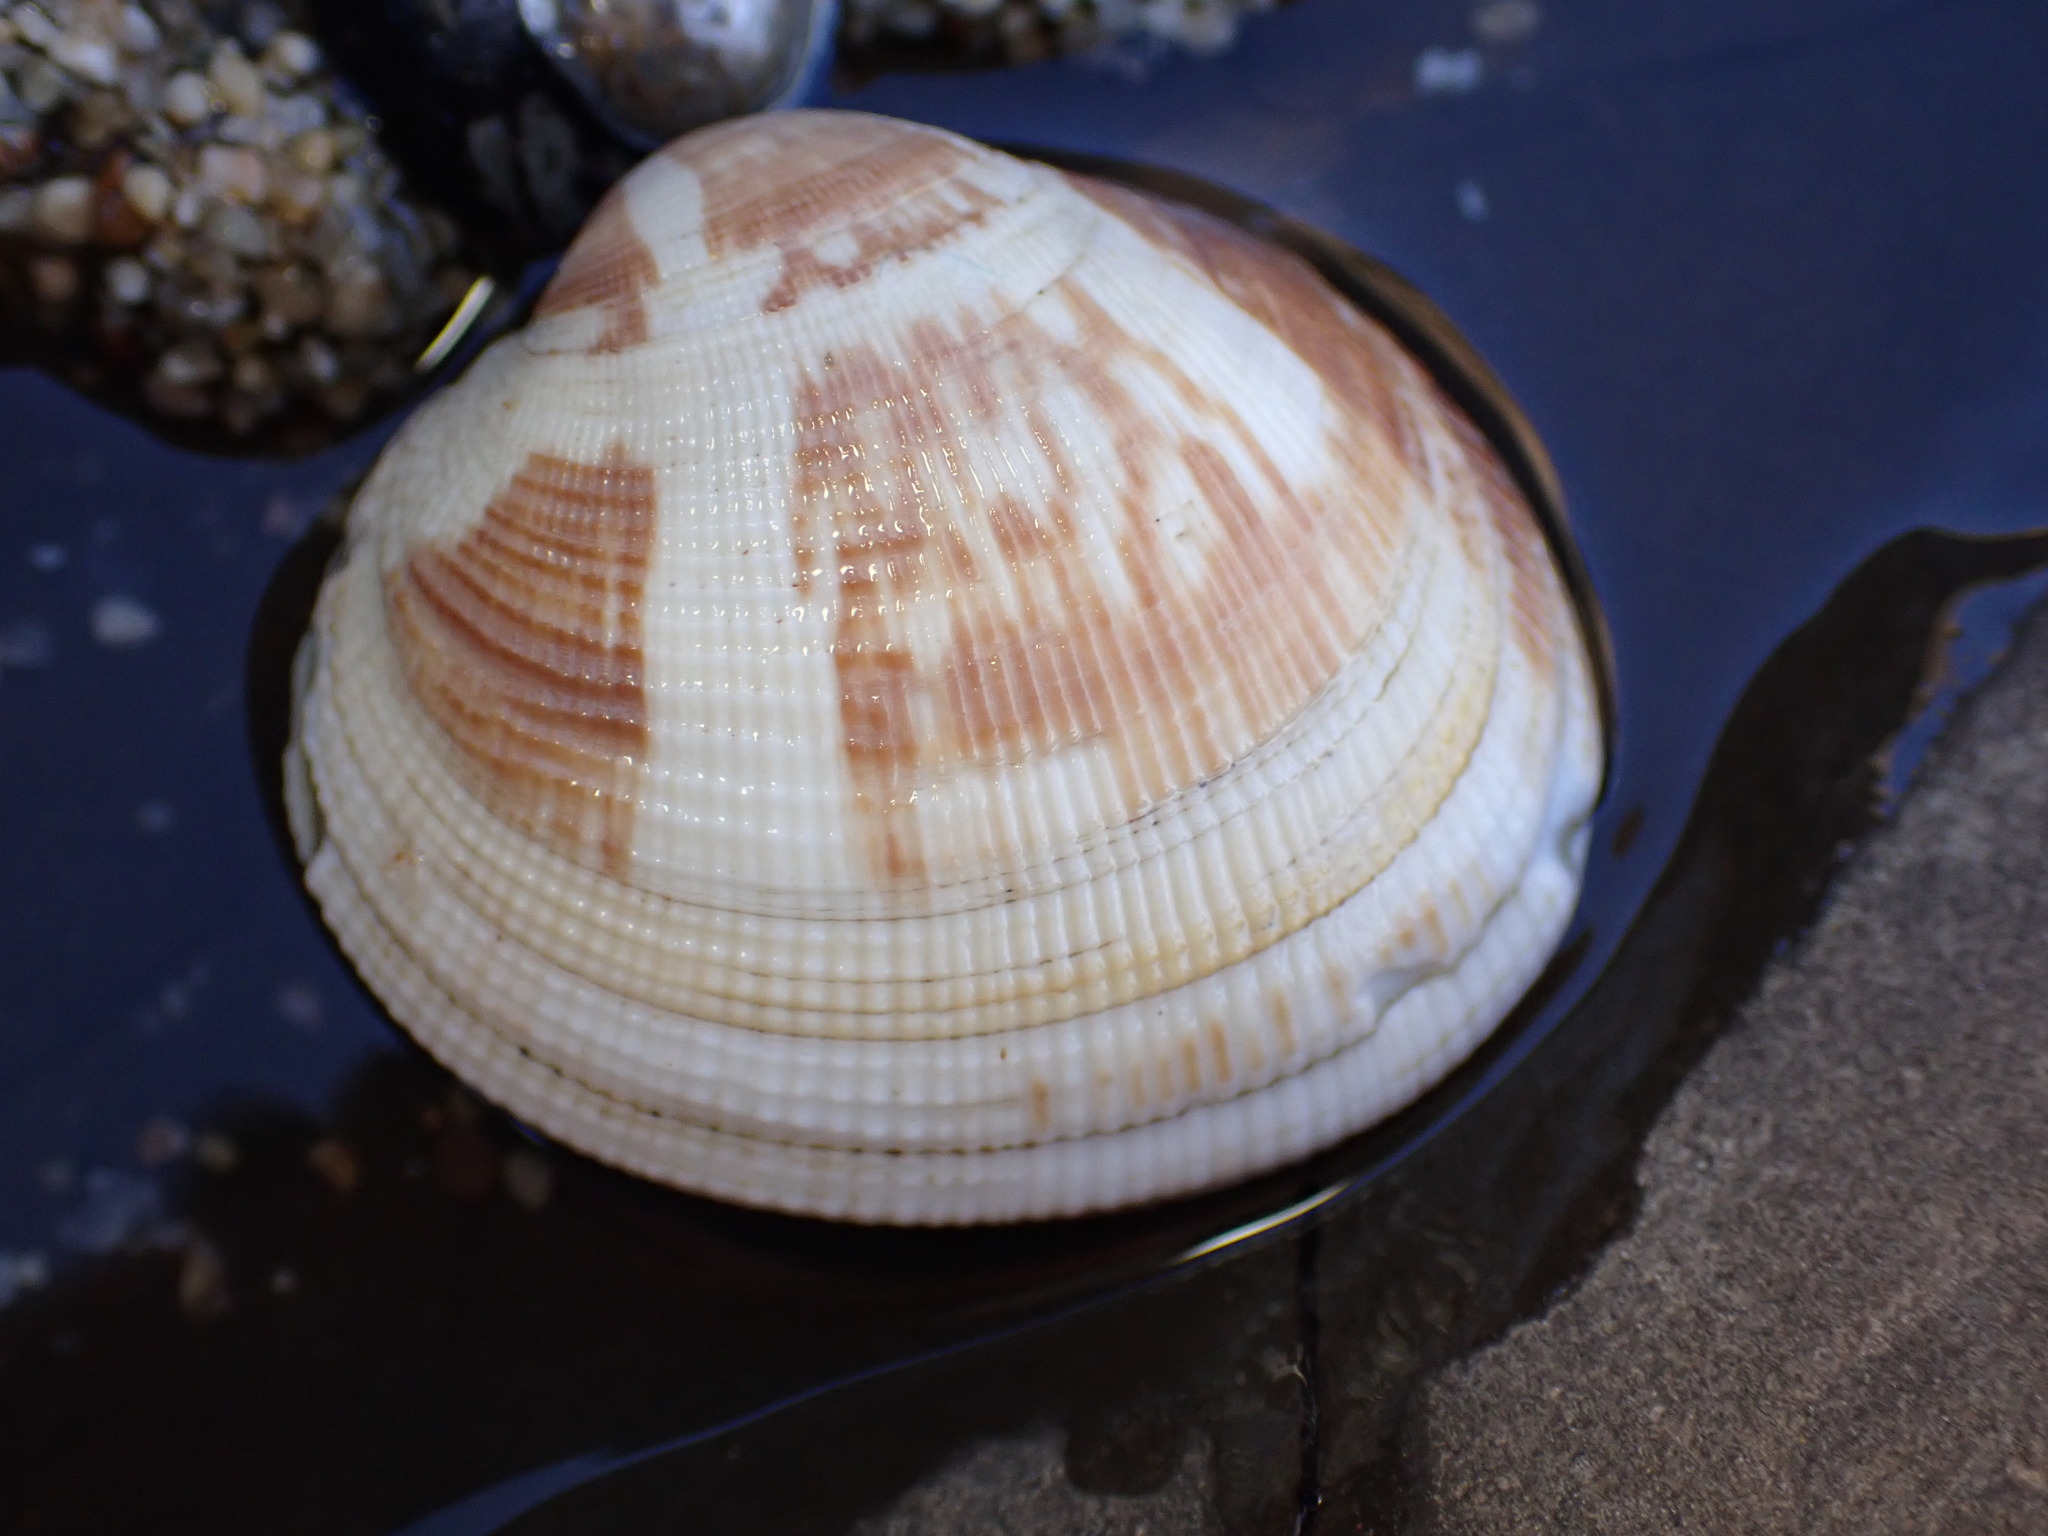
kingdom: Animalia
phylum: Mollusca
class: Bivalvia
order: Venerida
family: Veneridae
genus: Leukoma
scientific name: Leukoma staminea
